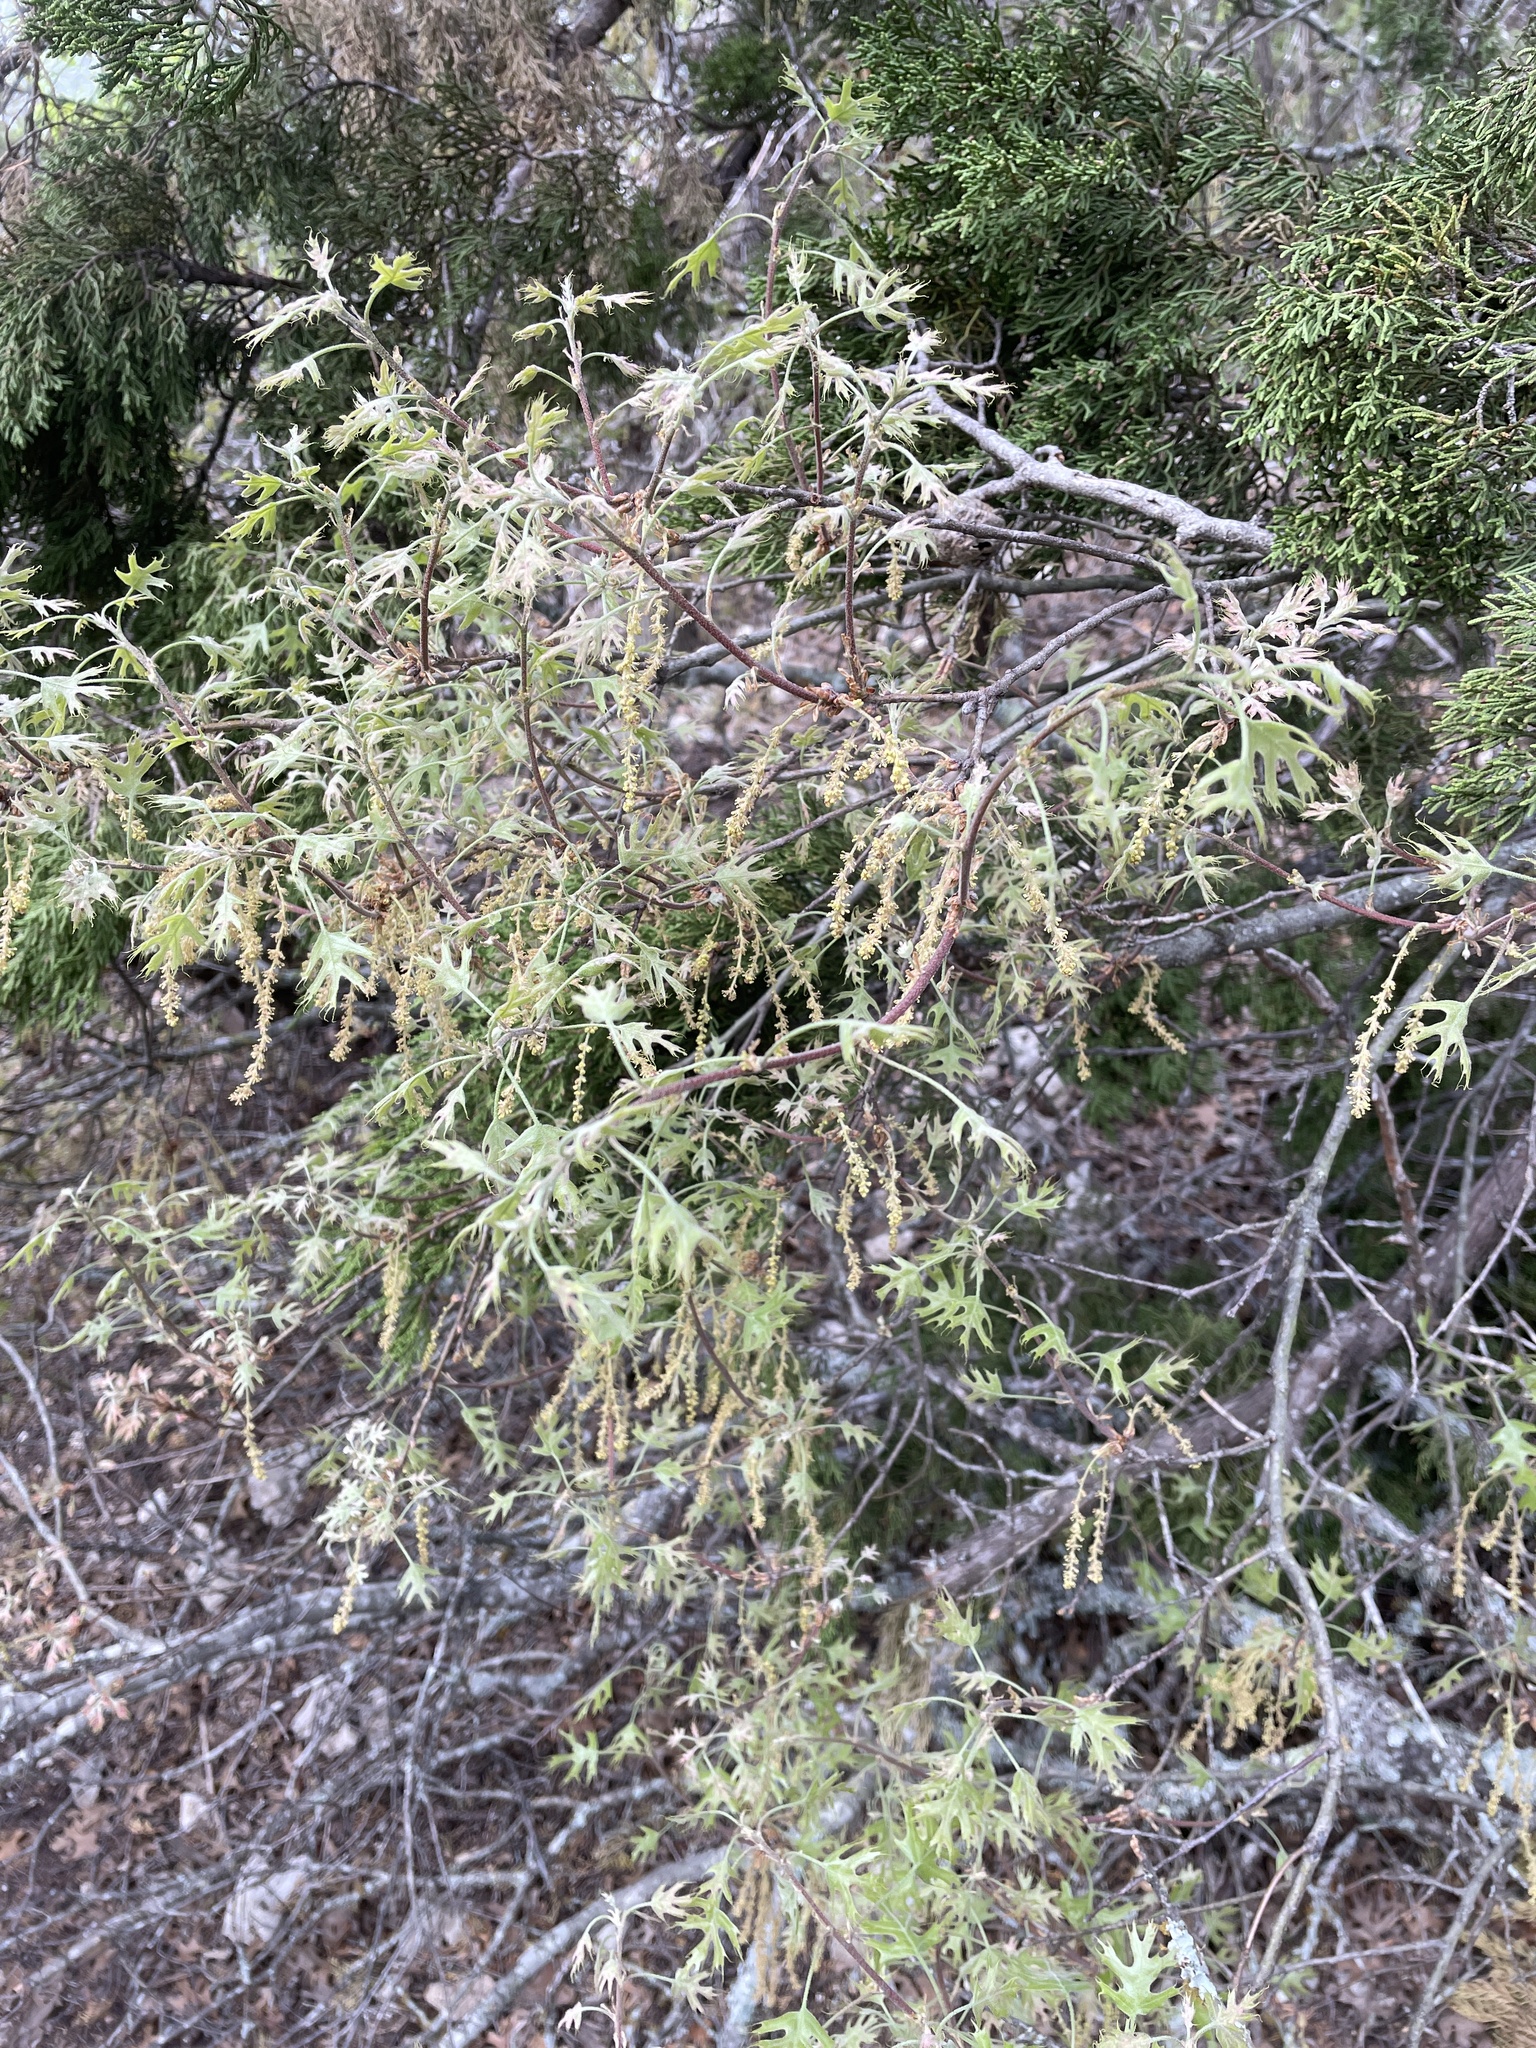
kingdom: Plantae
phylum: Tracheophyta
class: Magnoliopsida
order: Fagales
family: Fagaceae
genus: Quercus
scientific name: Quercus buckleyi
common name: Buckley oak
